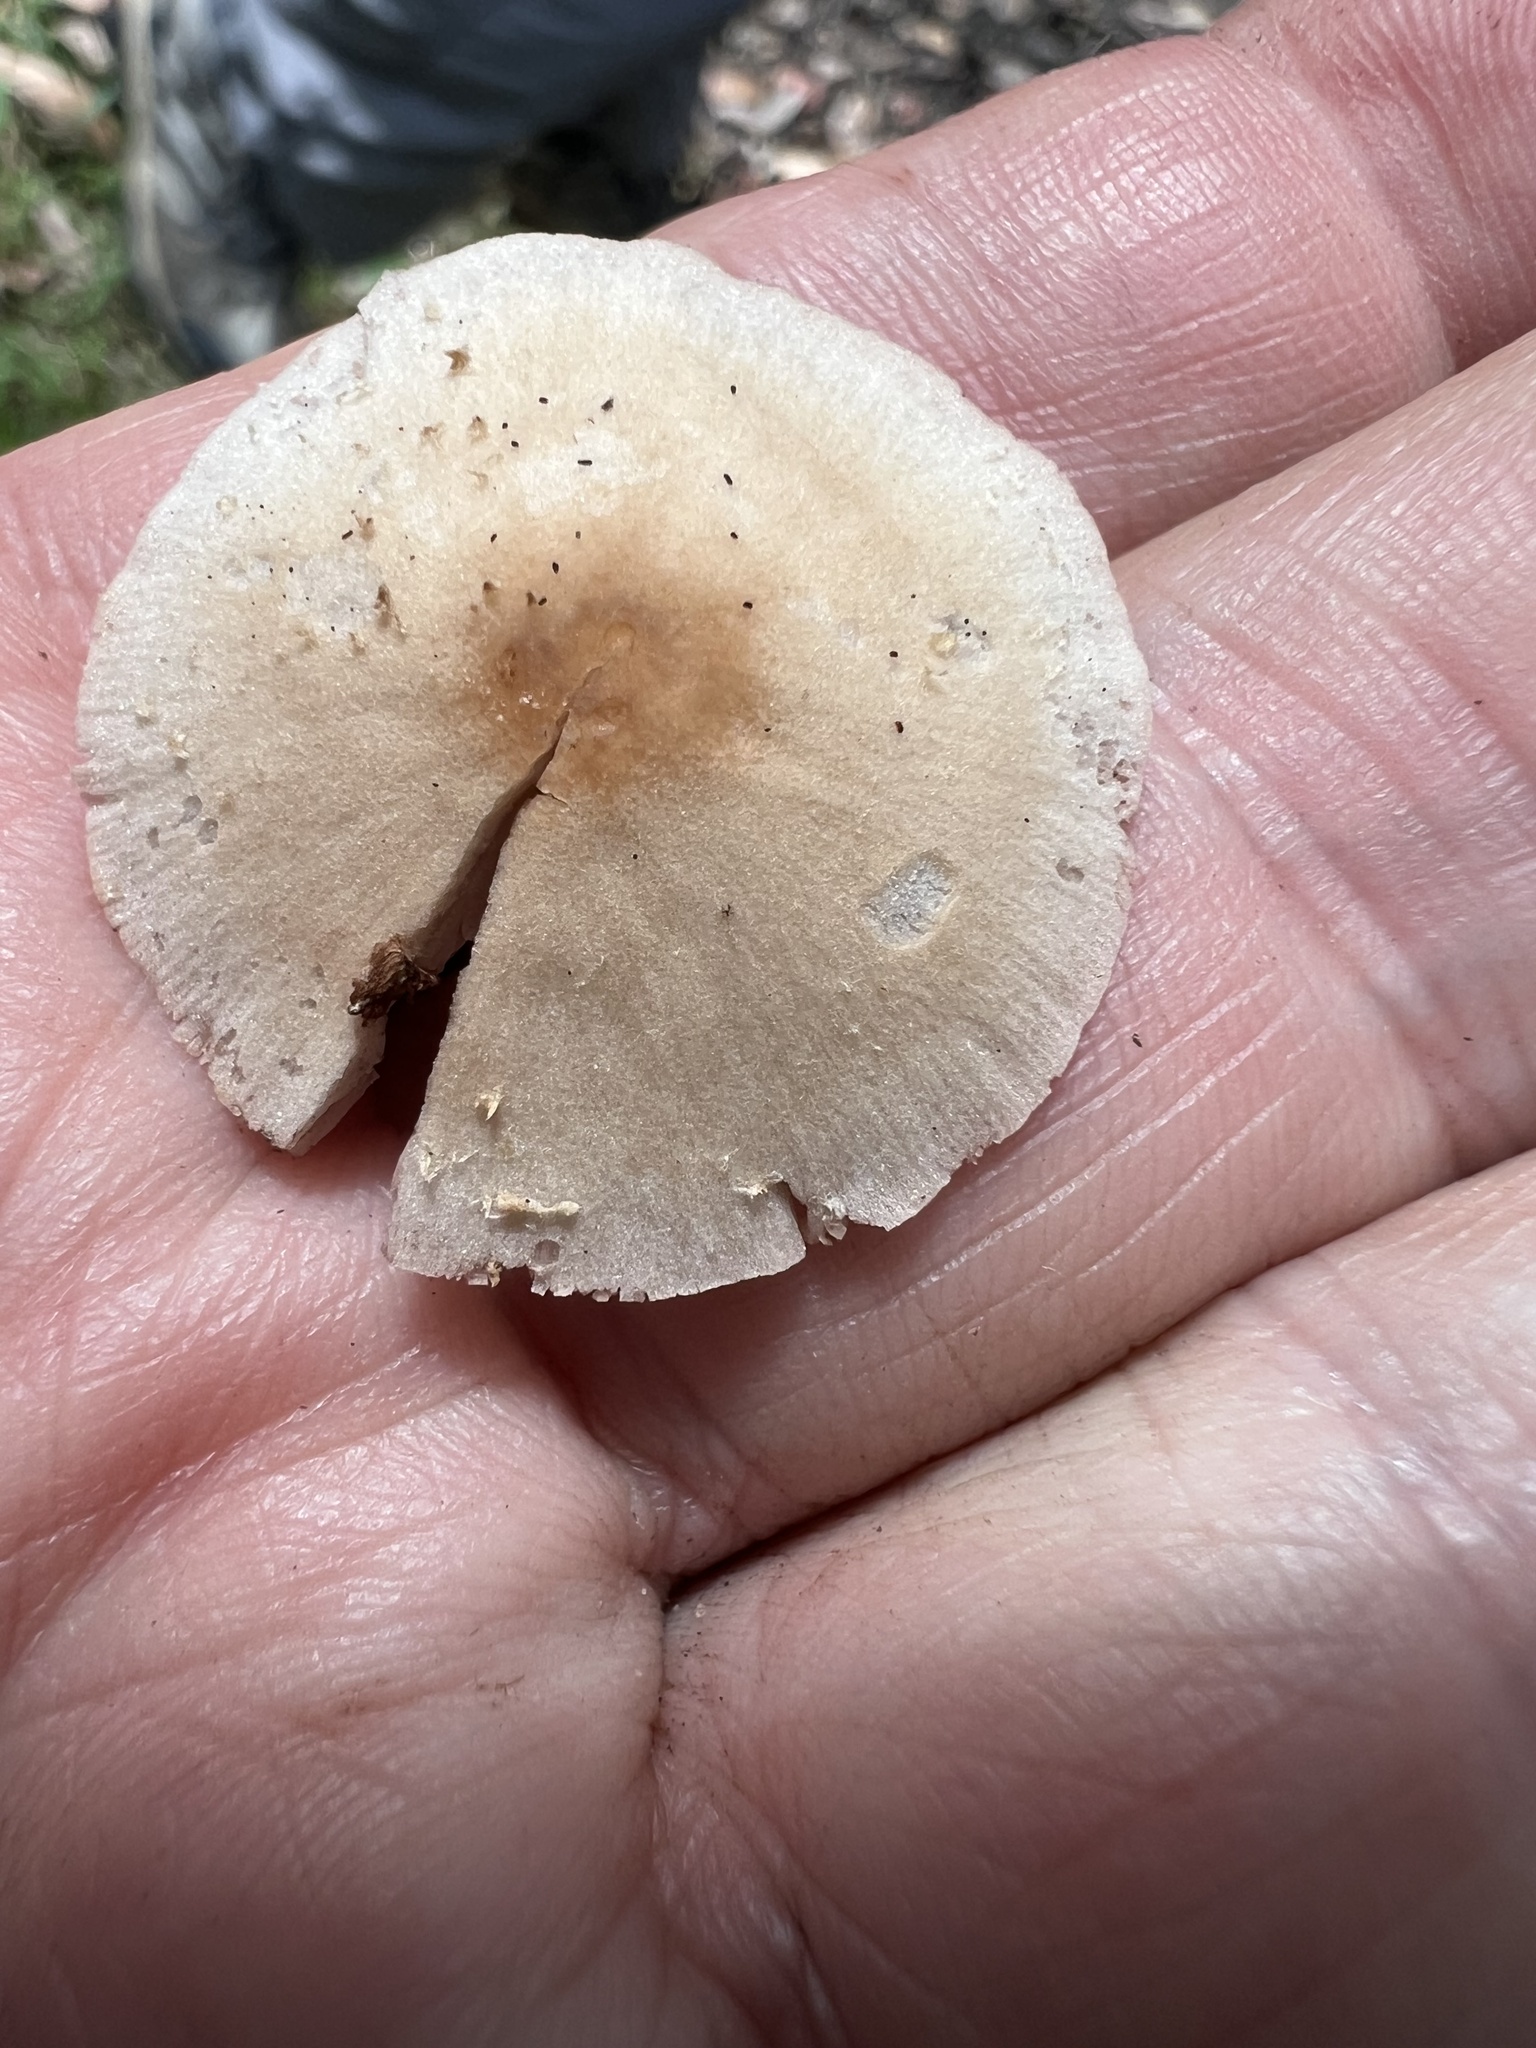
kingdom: Fungi
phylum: Basidiomycota
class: Agaricomycetes
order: Agaricales
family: Psathyrellaceae
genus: Candolleomyces
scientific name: Candolleomyces candolleanus
